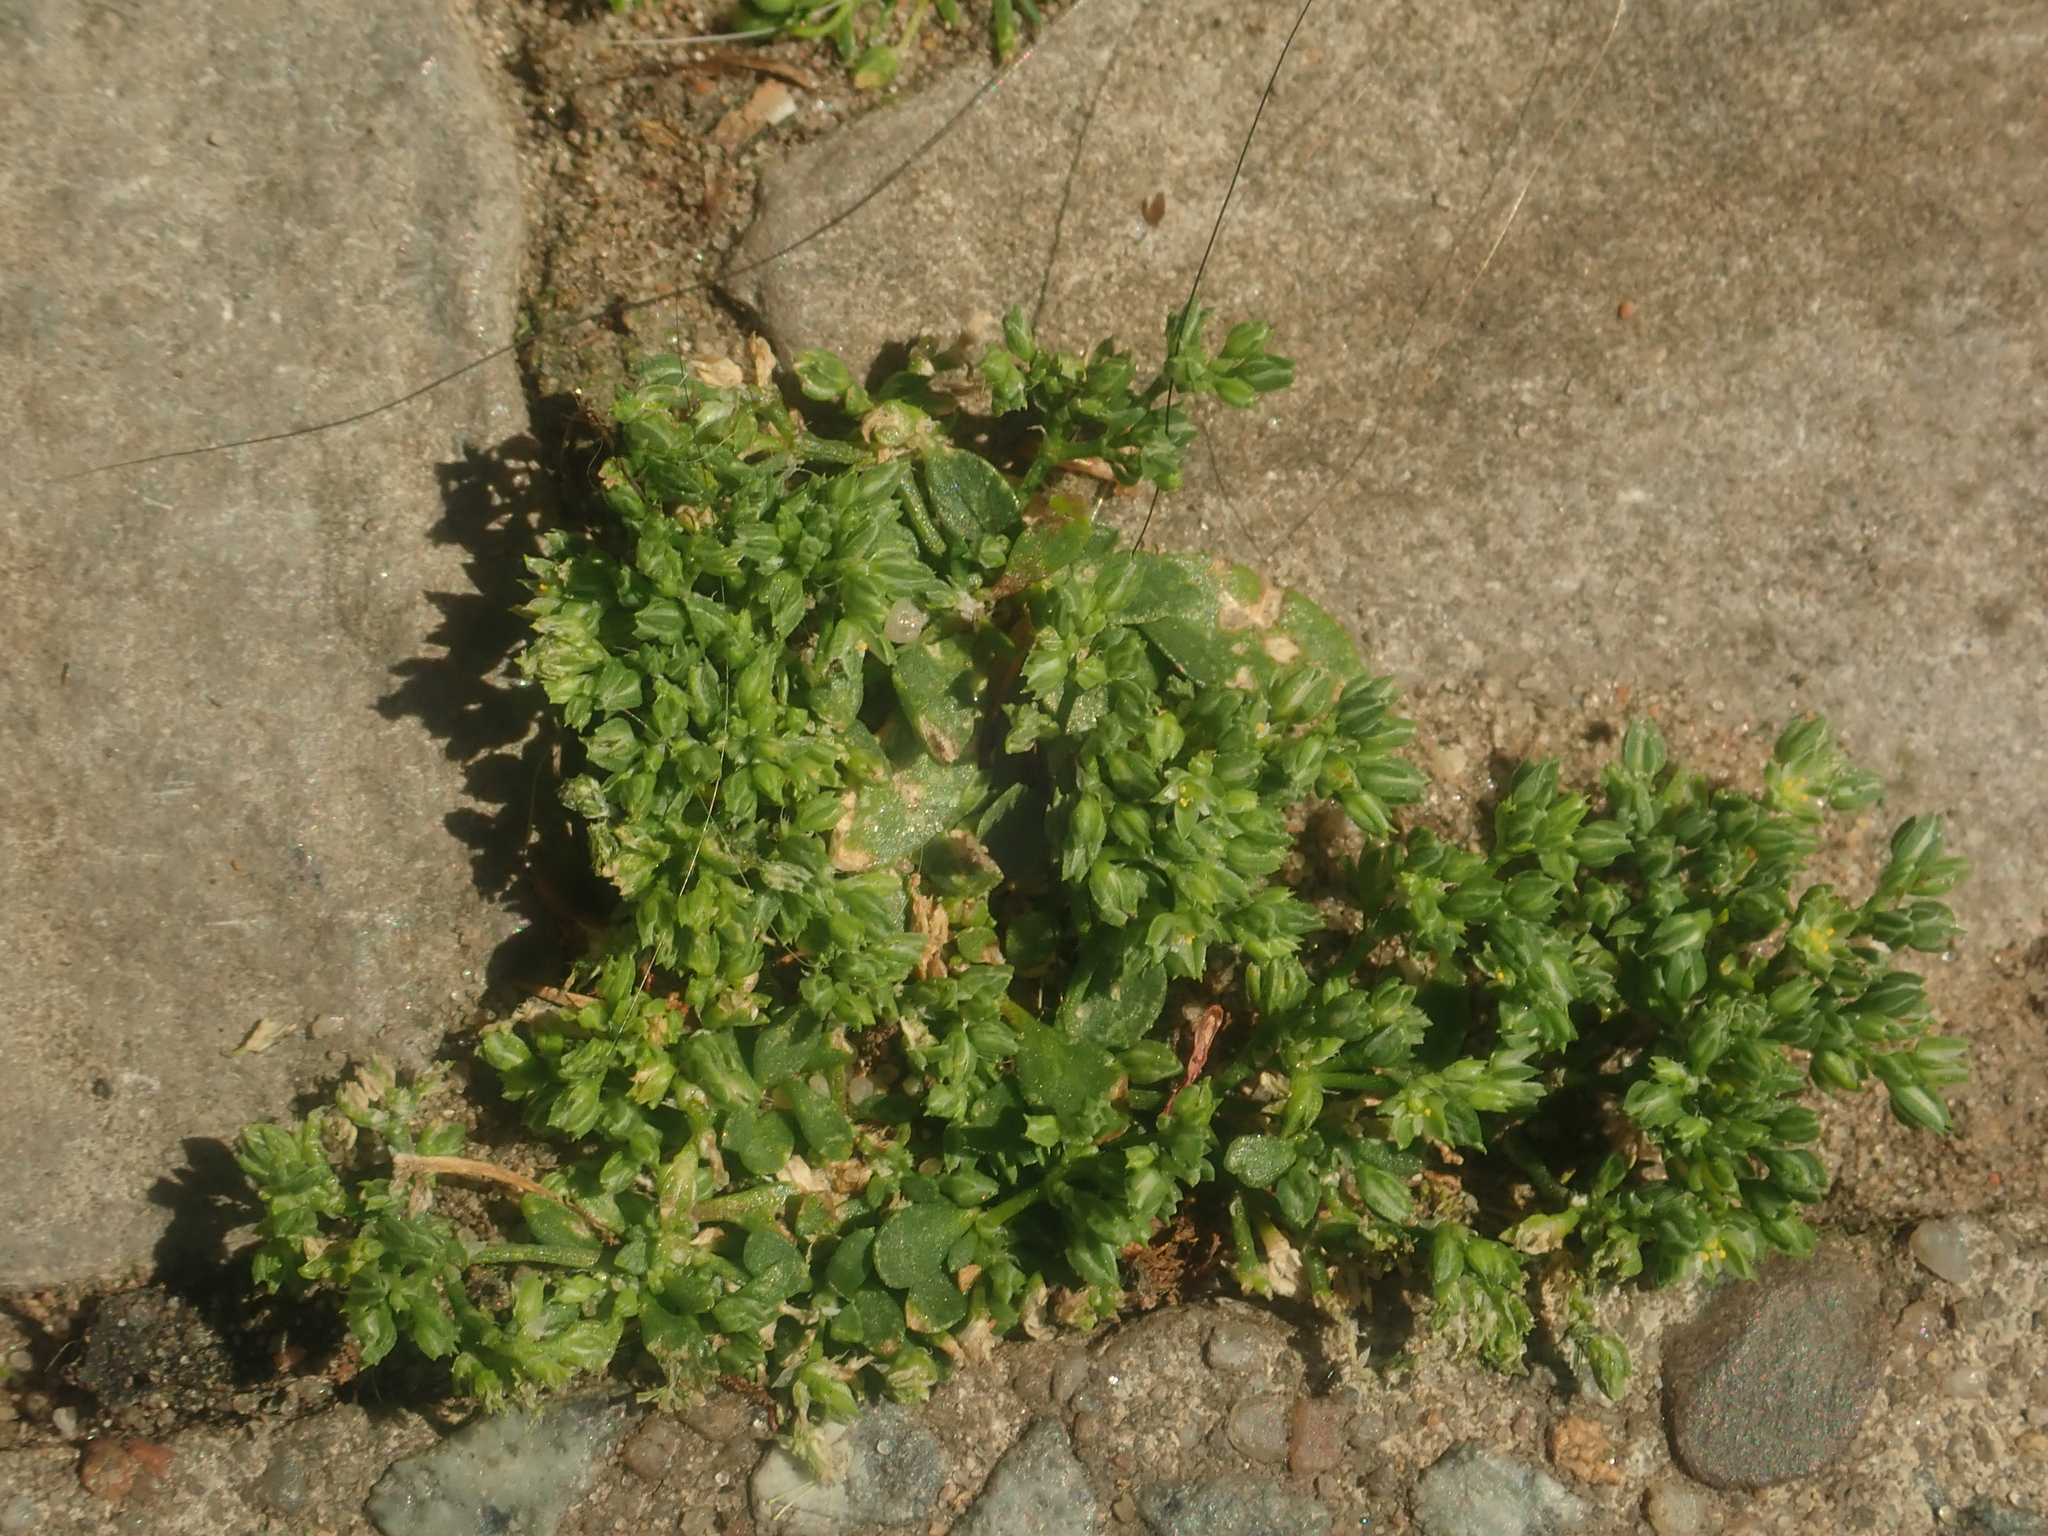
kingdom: Plantae
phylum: Tracheophyta
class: Magnoliopsida
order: Caryophyllales
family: Caryophyllaceae
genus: Polycarpon
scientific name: Polycarpon tetraphyllum
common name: Four-leaved all-seed
